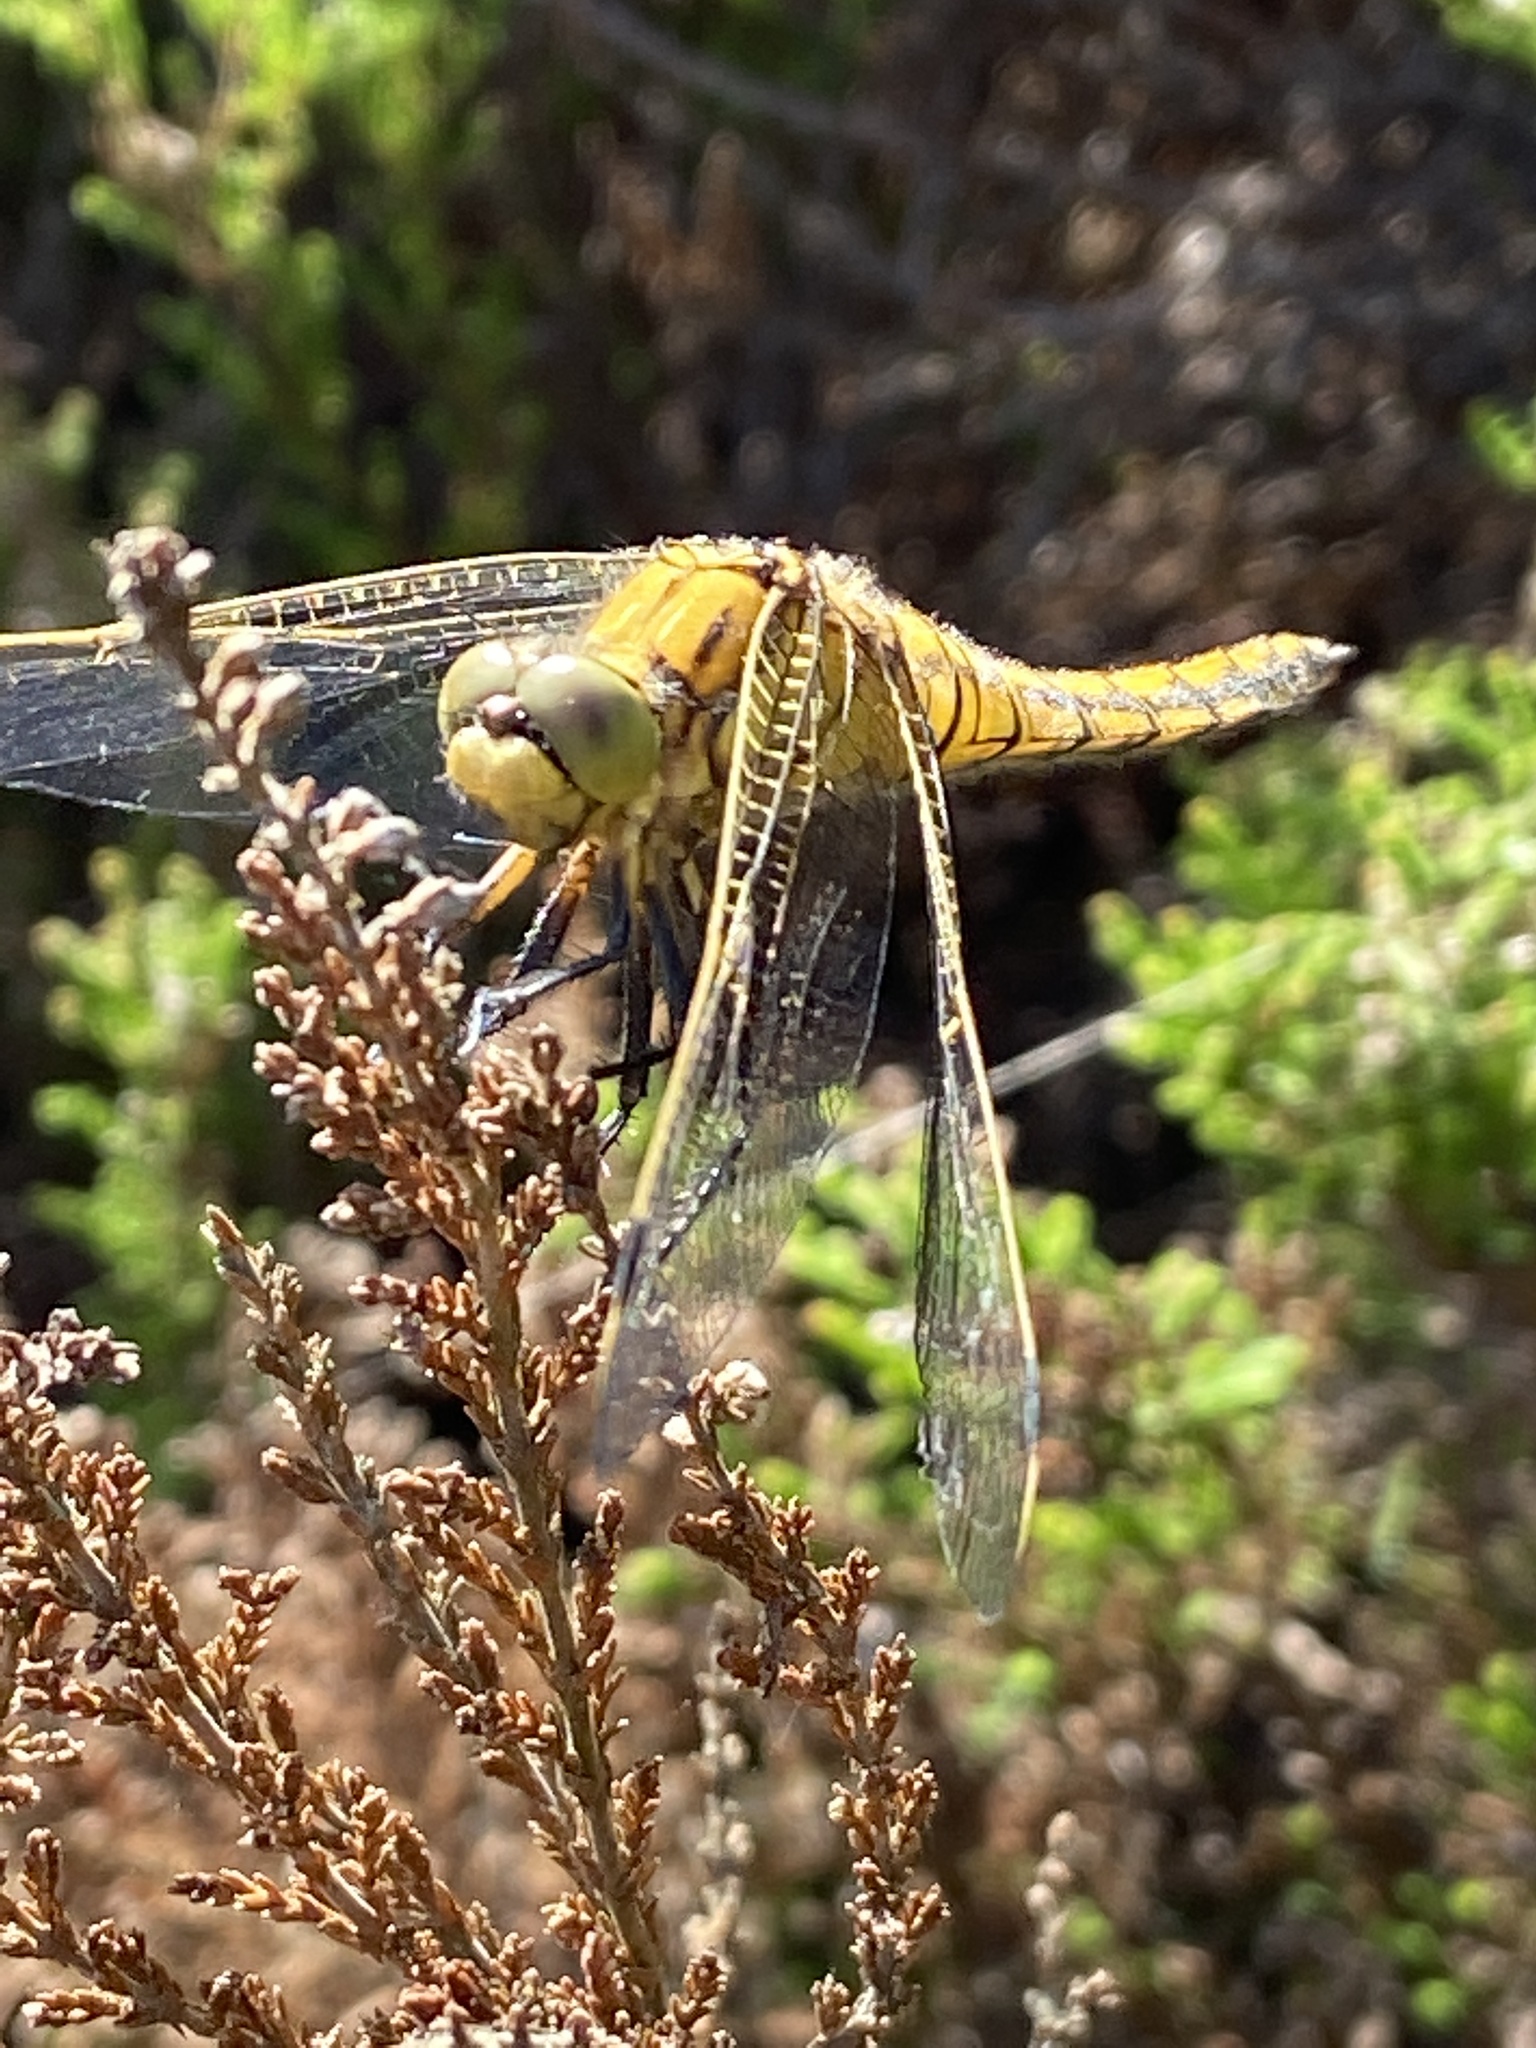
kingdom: Animalia
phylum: Arthropoda
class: Insecta
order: Odonata
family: Libellulidae
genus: Orthetrum
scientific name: Orthetrum cancellatum
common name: Black-tailed skimmer
